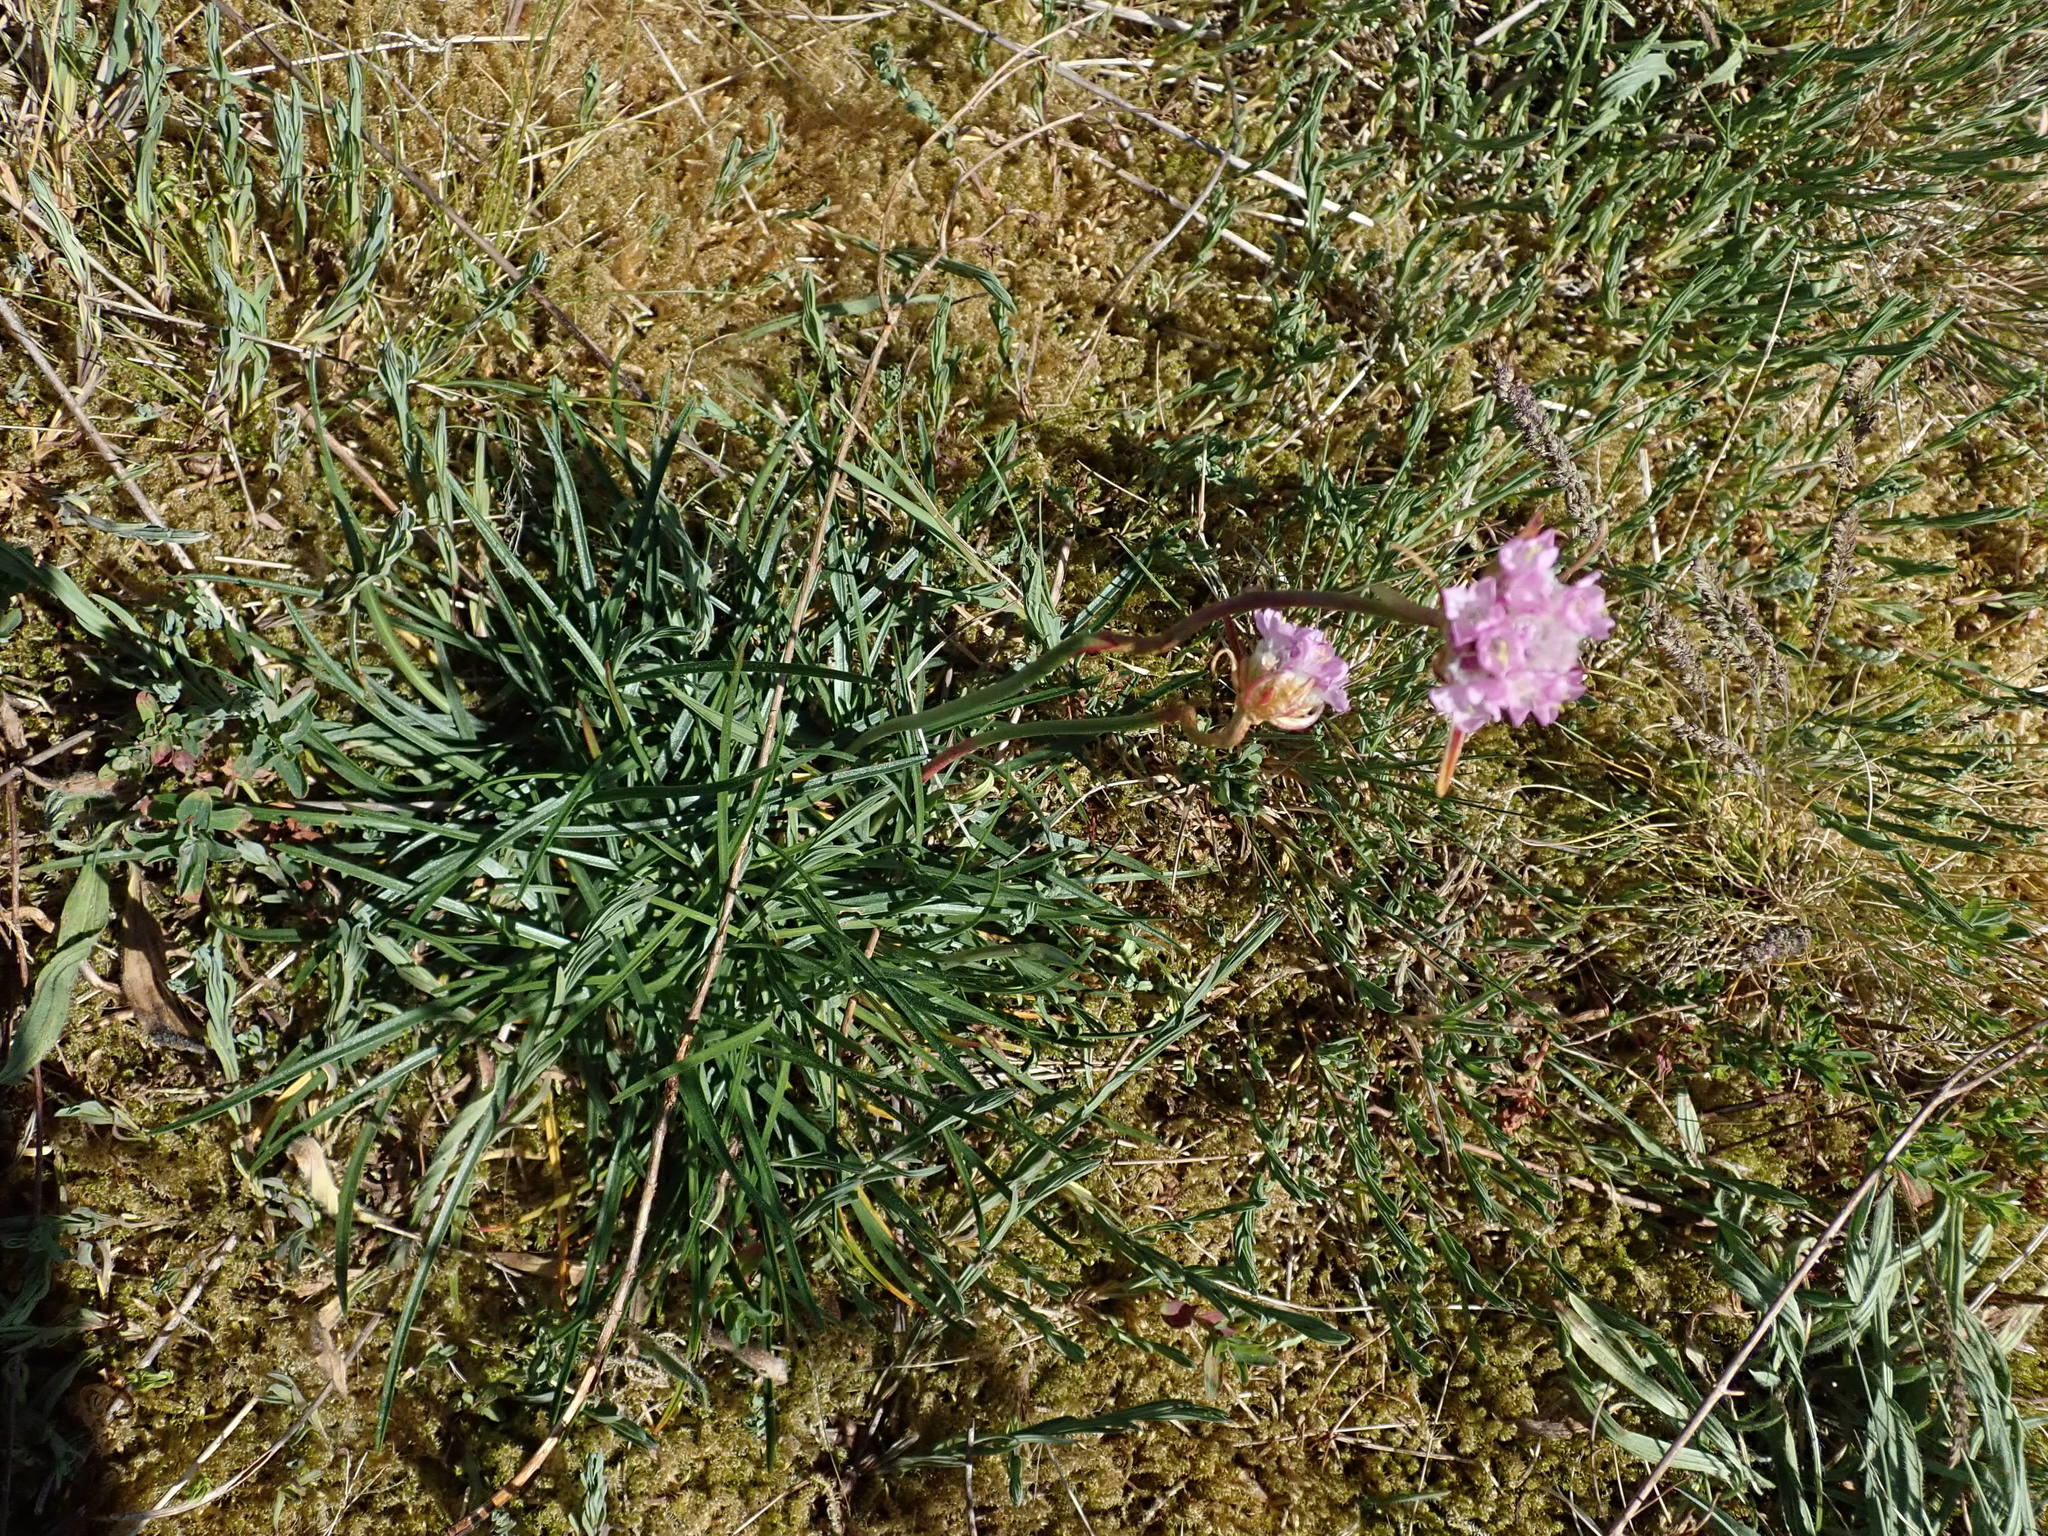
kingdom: Plantae
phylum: Tracheophyta
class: Magnoliopsida
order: Caryophyllales
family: Plumbaginaceae
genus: Armeria
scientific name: Armeria maritima
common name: Thrift
